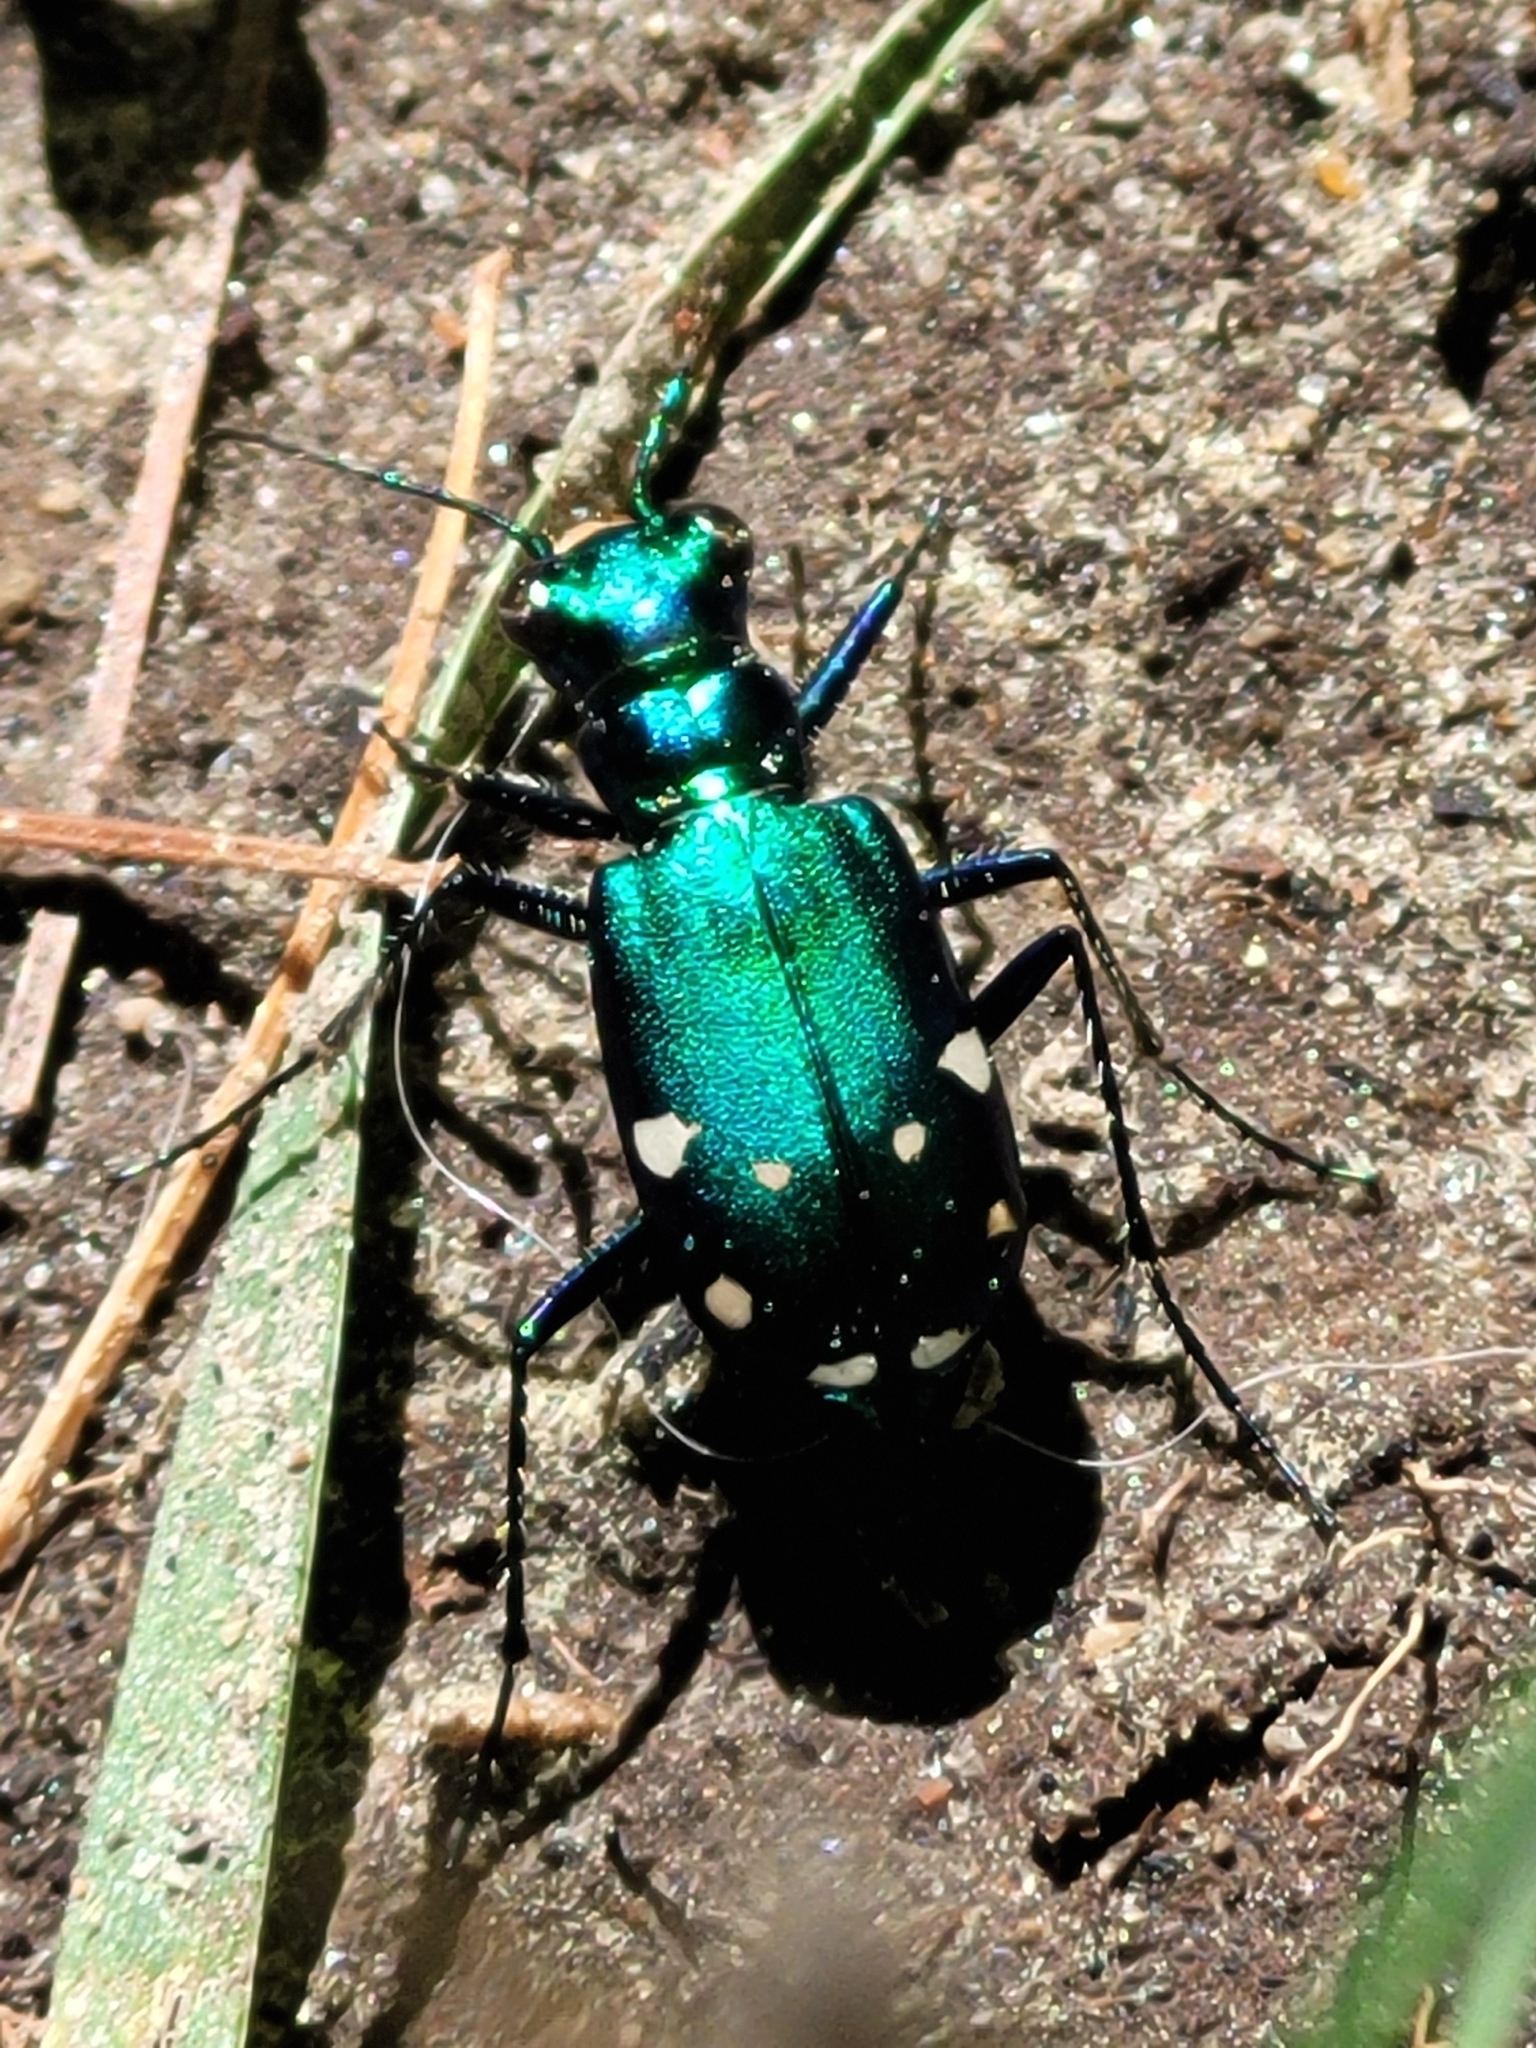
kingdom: Animalia
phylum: Arthropoda
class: Insecta
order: Coleoptera
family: Carabidae
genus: Cicindela
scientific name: Cicindela sexguttata
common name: Six-spotted tiger beetle
